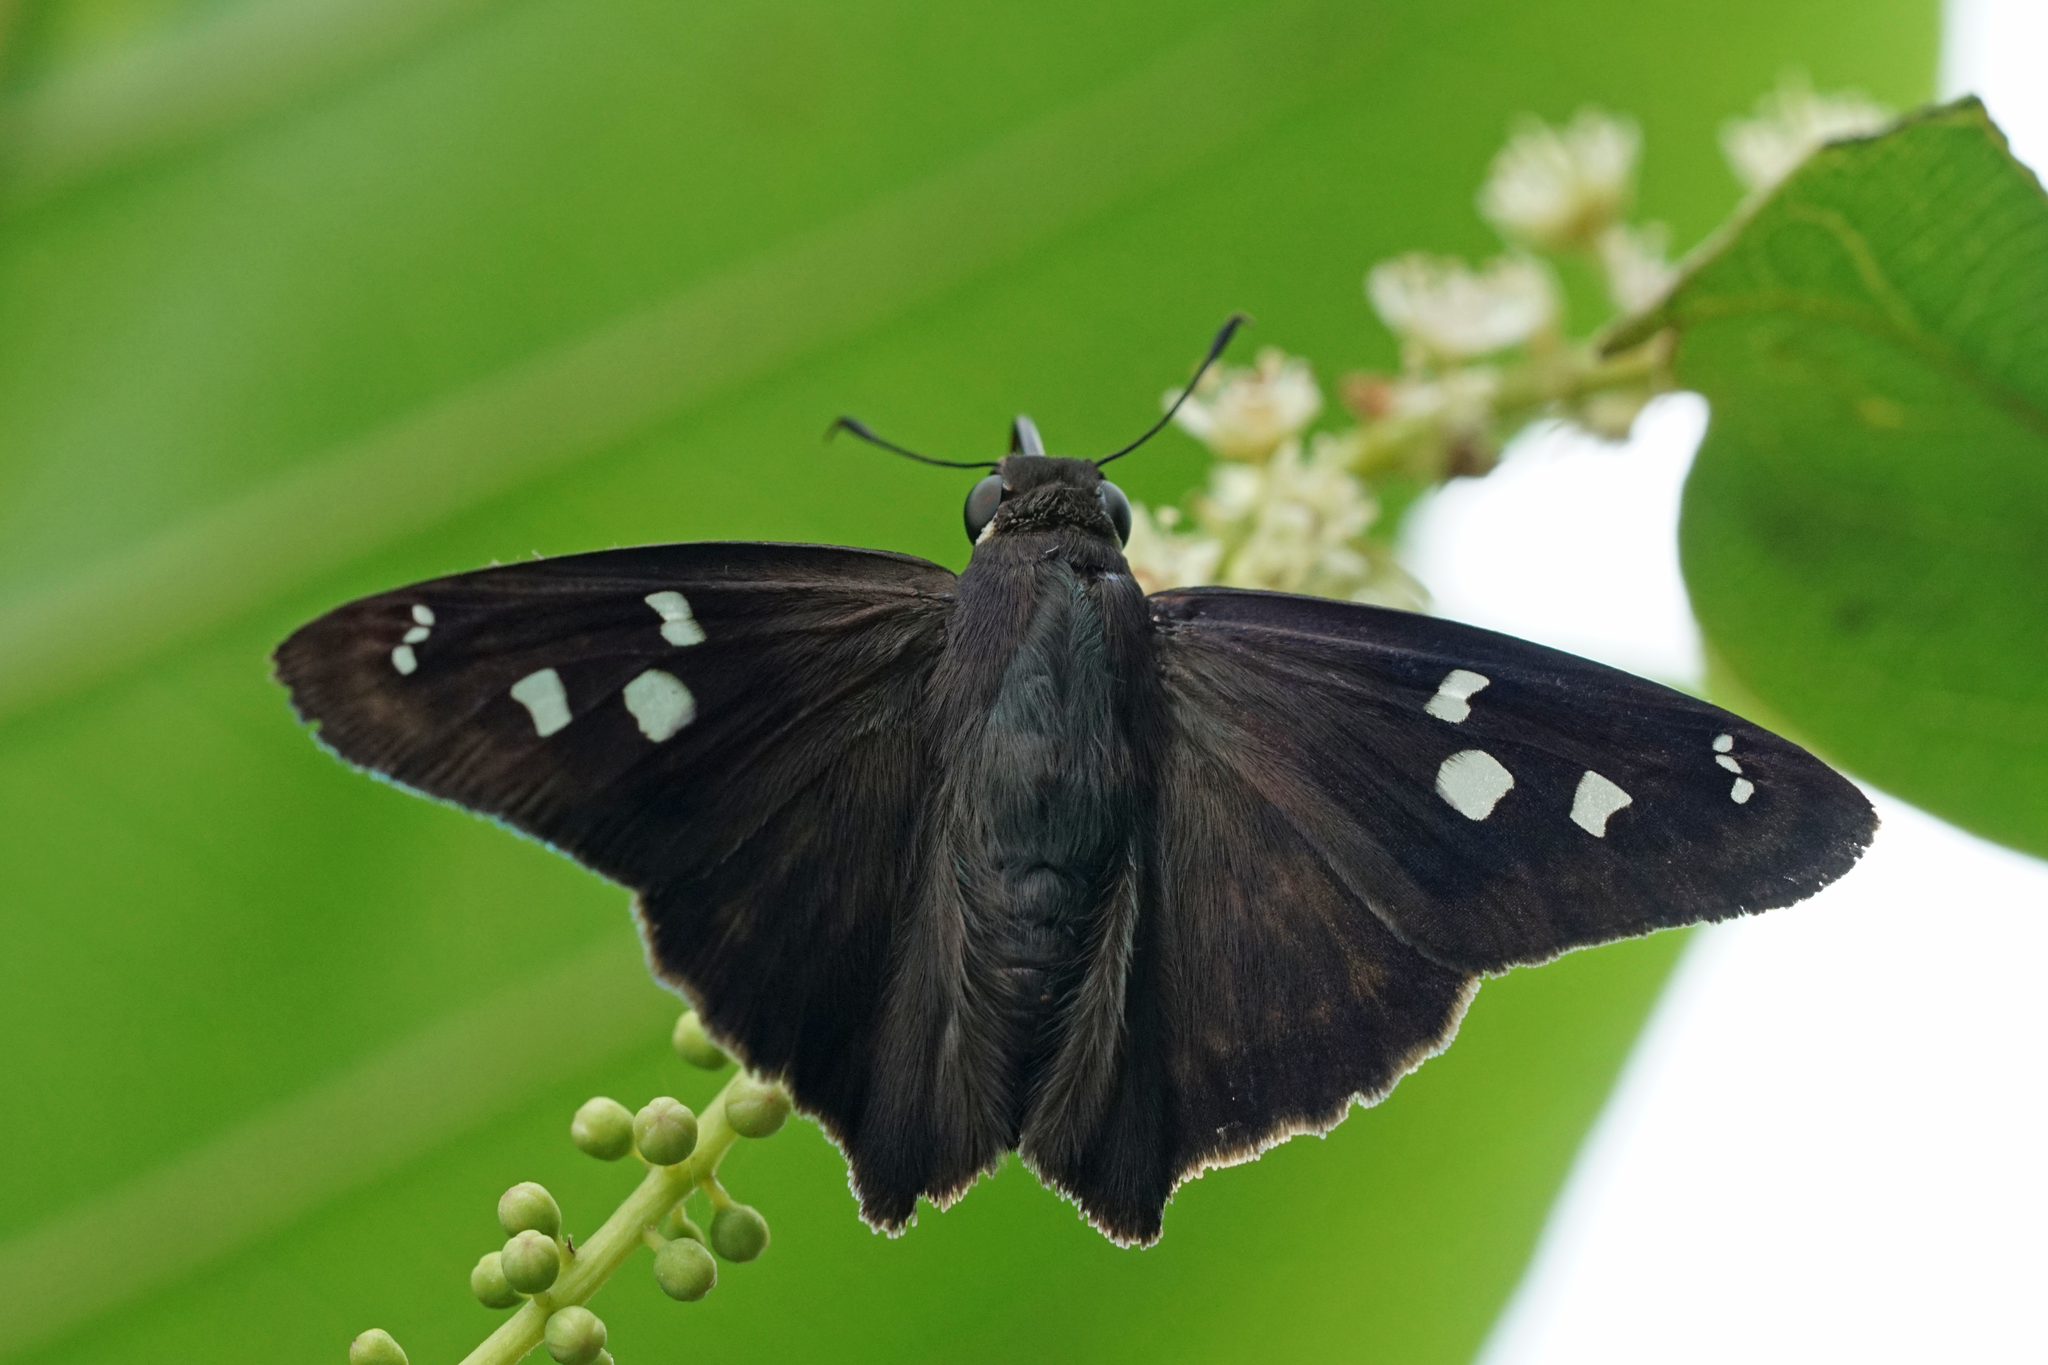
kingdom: Animalia
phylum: Arthropoda
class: Insecta
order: Lepidoptera
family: Hesperiidae
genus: Polygonus
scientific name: Polygonus leo
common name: Hammoch skipper
